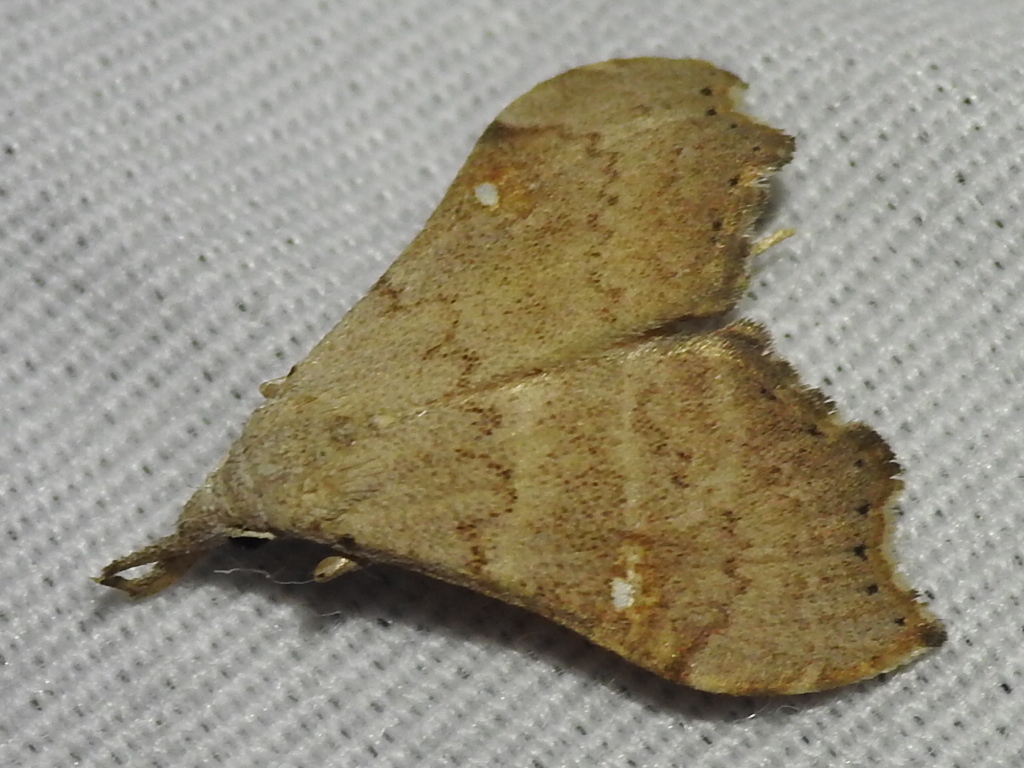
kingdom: Animalia
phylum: Arthropoda
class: Insecta
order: Lepidoptera
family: Erebidae
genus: Redectis
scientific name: Redectis vitrea
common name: White-spotted redectis
